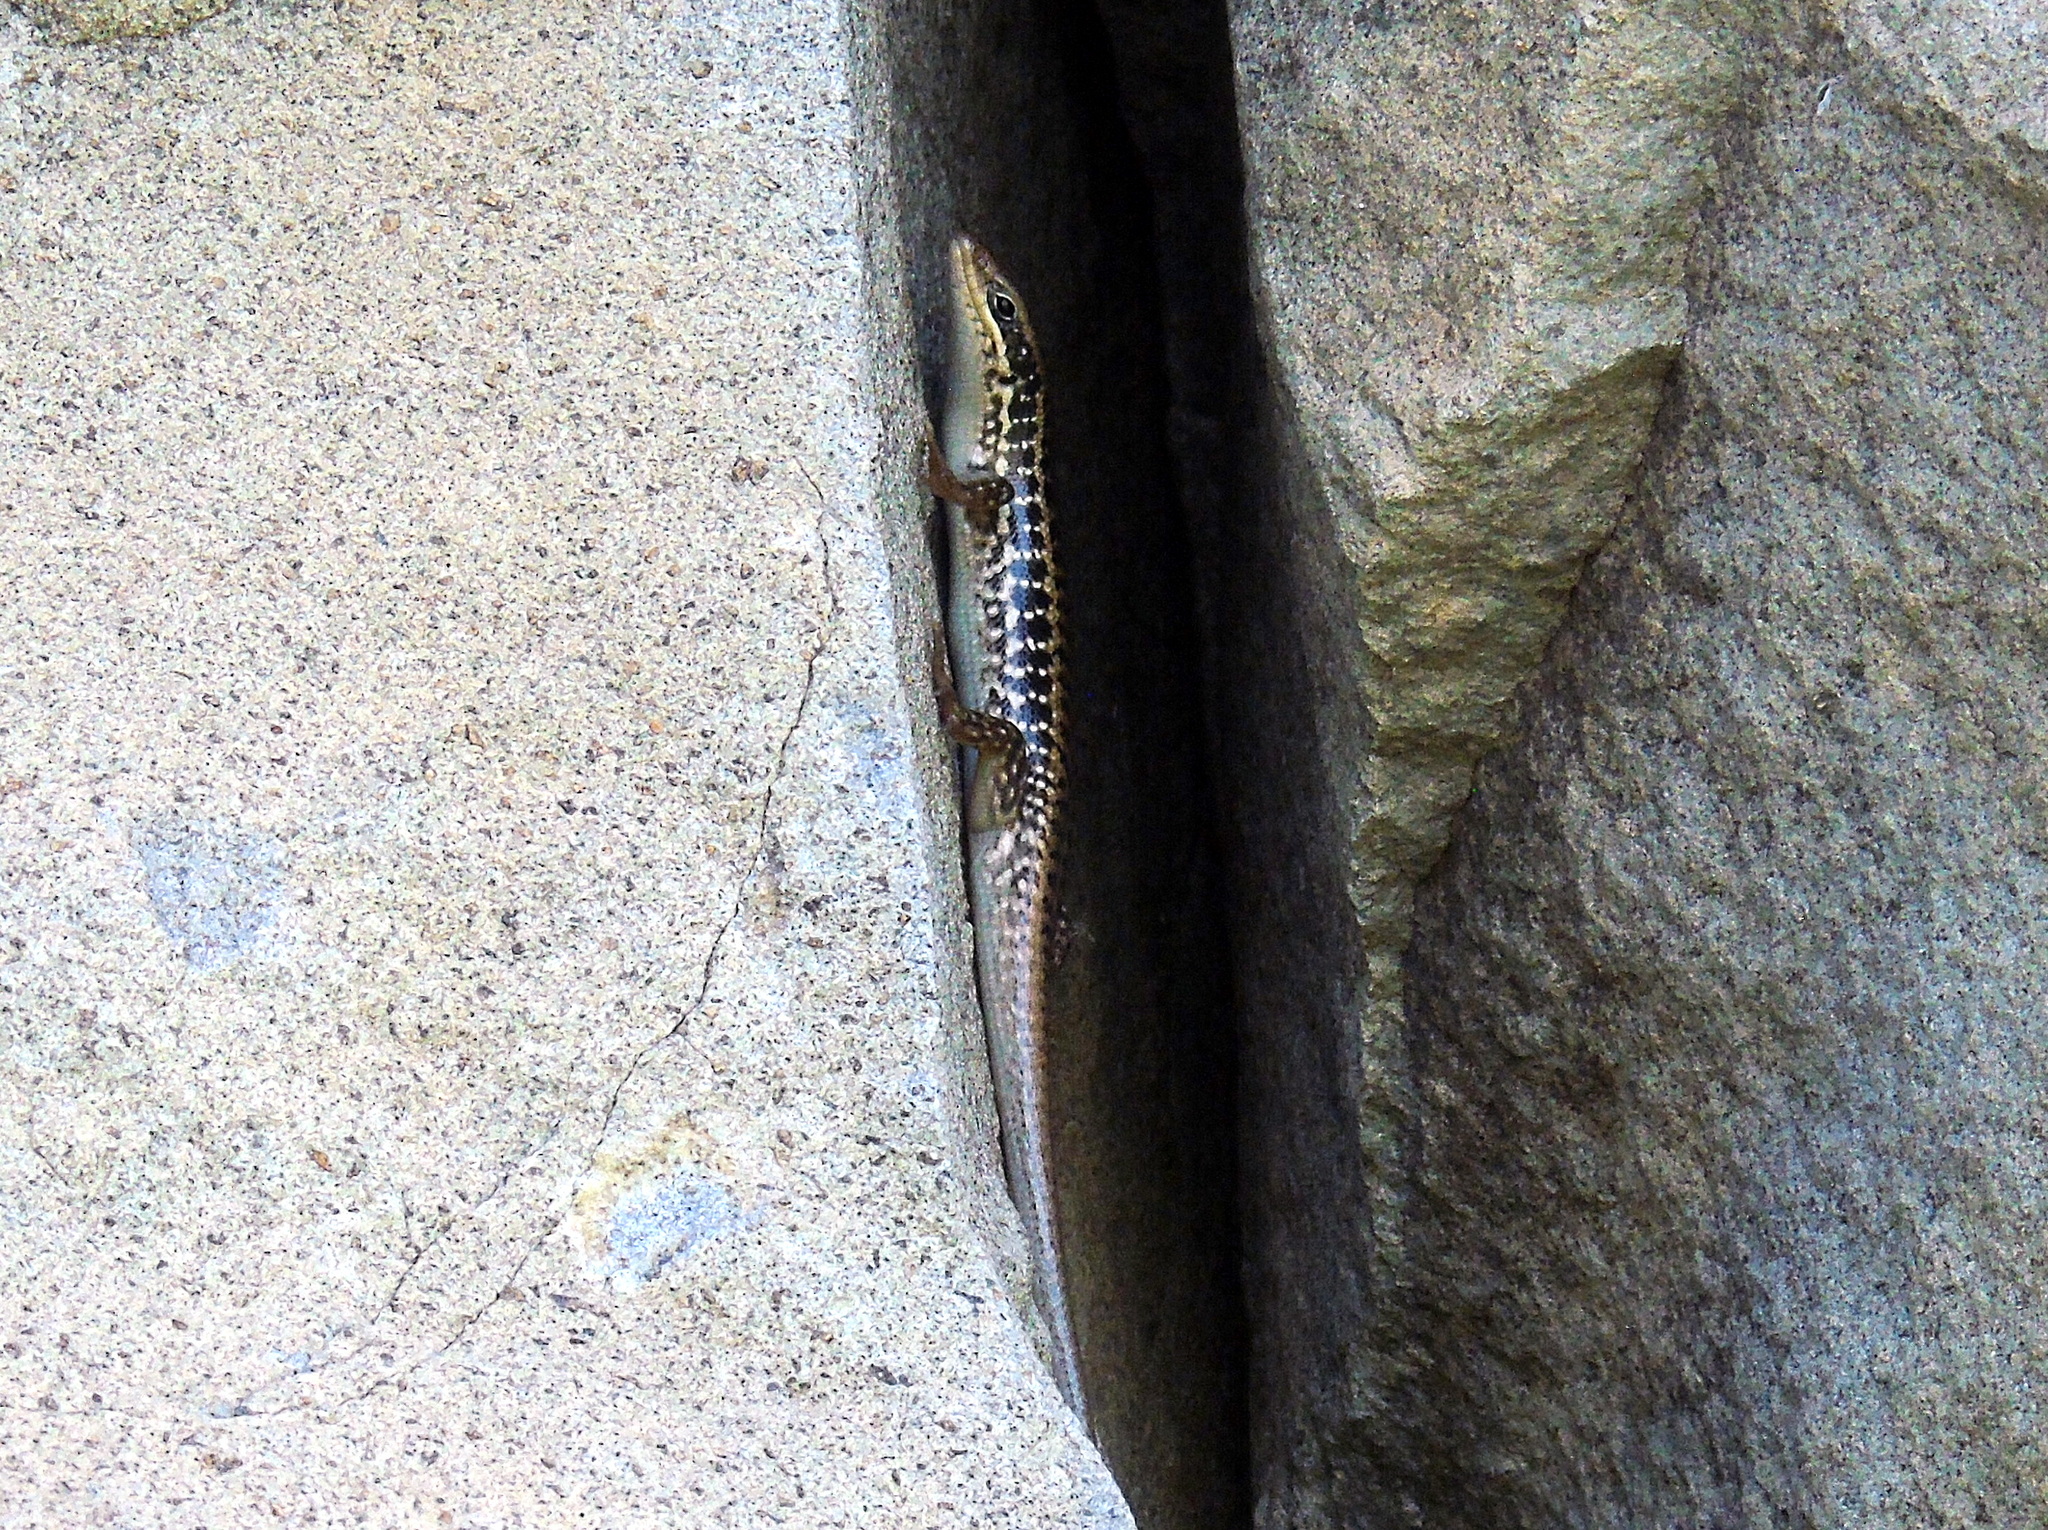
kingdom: Animalia
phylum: Chordata
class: Squamata
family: Scincidae
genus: Heremites
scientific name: Heremites auratus
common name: Golden grass mabuya
